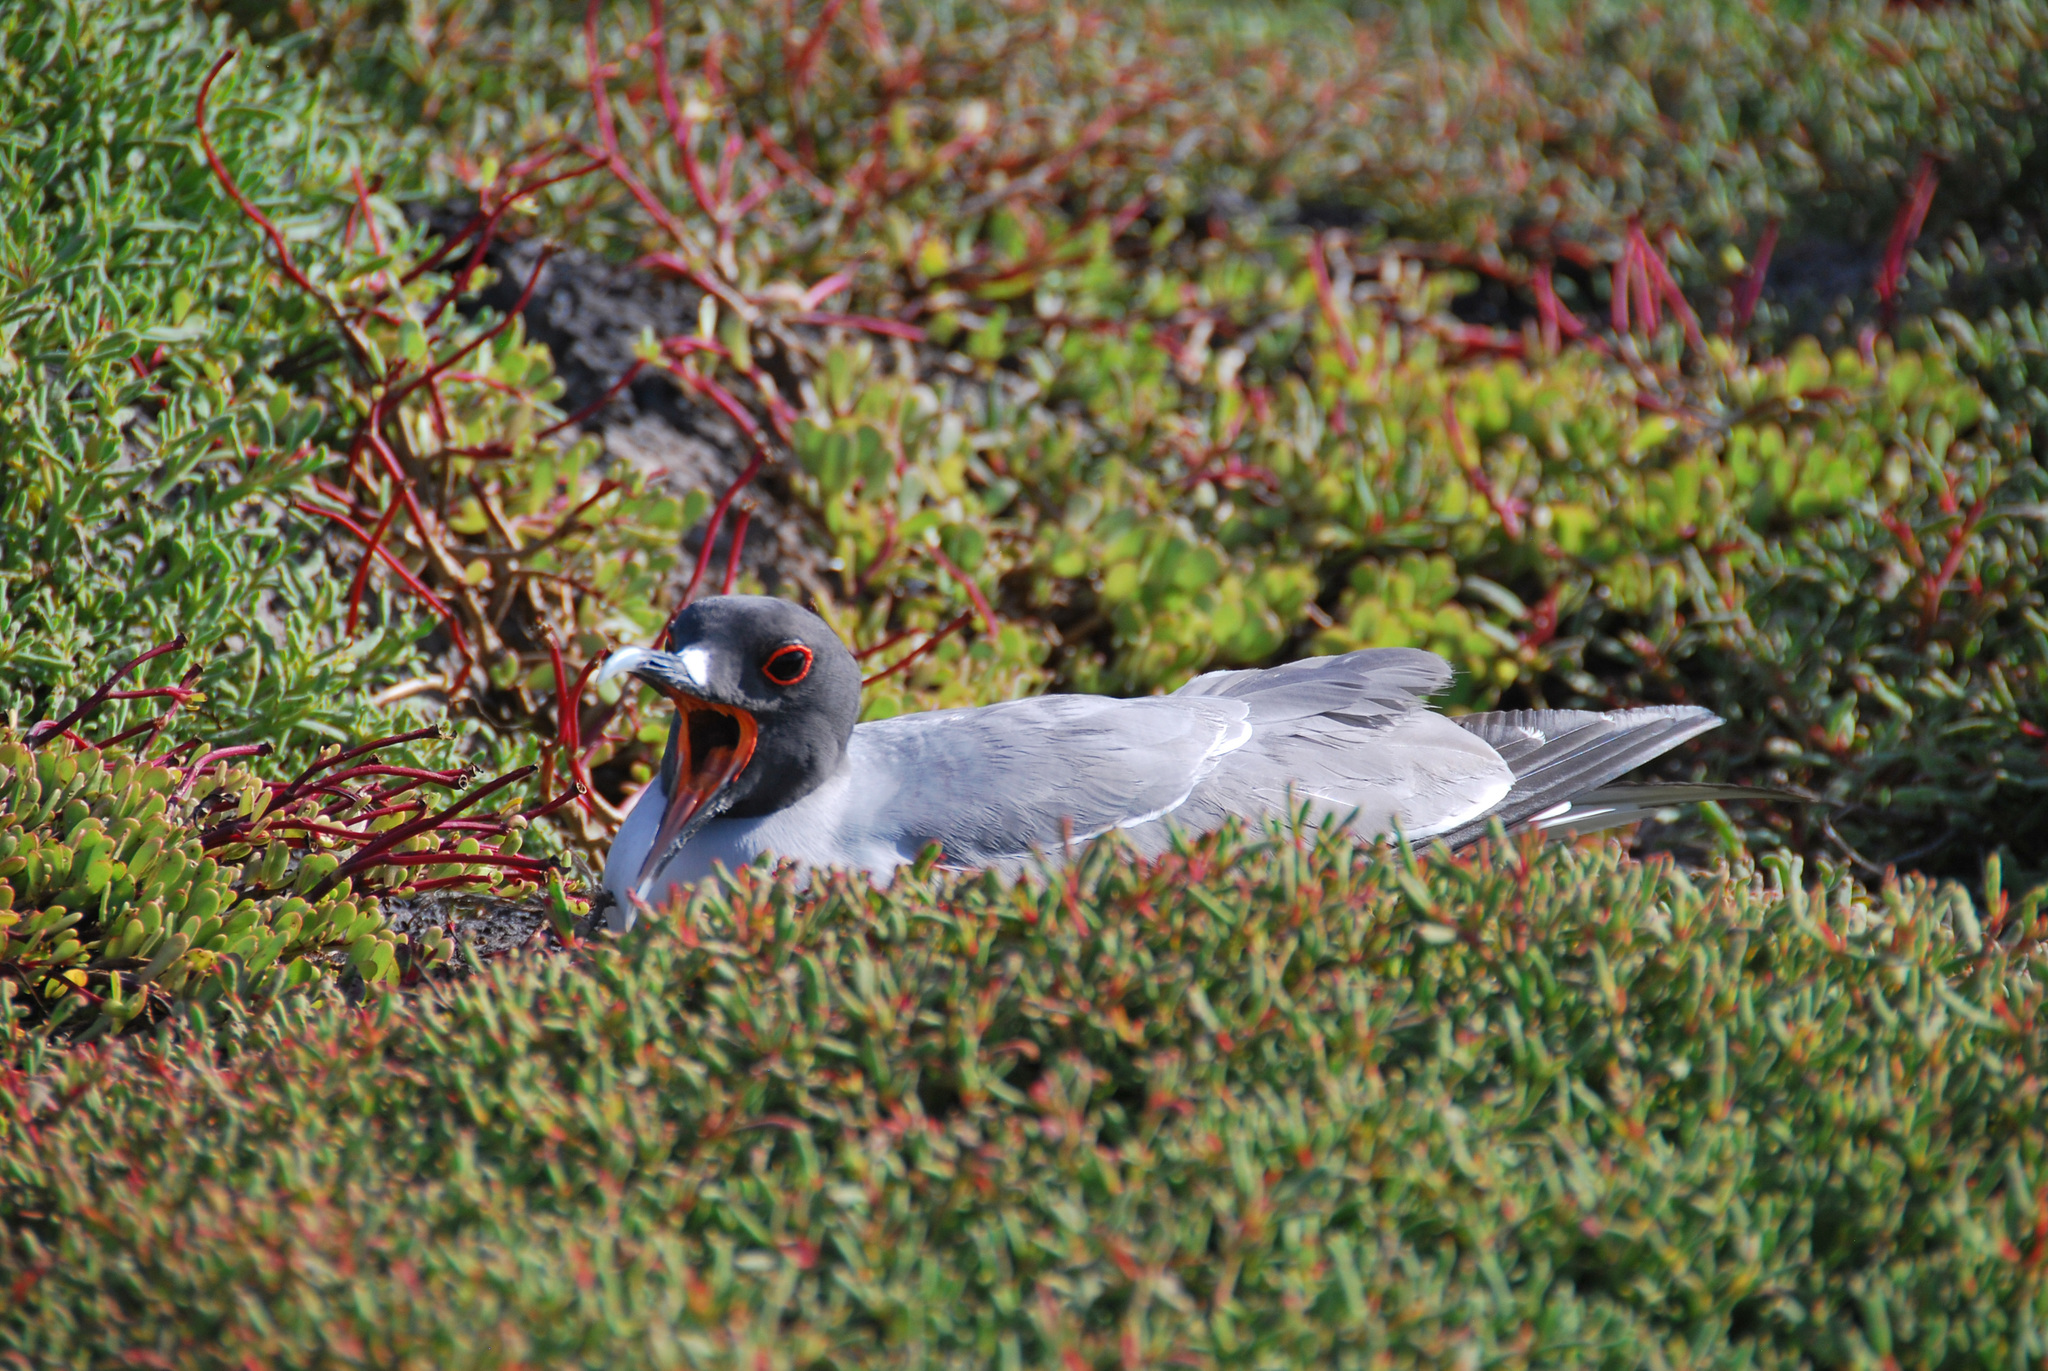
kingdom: Animalia
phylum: Chordata
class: Aves
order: Charadriiformes
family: Laridae
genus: Creagrus
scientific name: Creagrus furcatus
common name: Swallow-tailed gull
